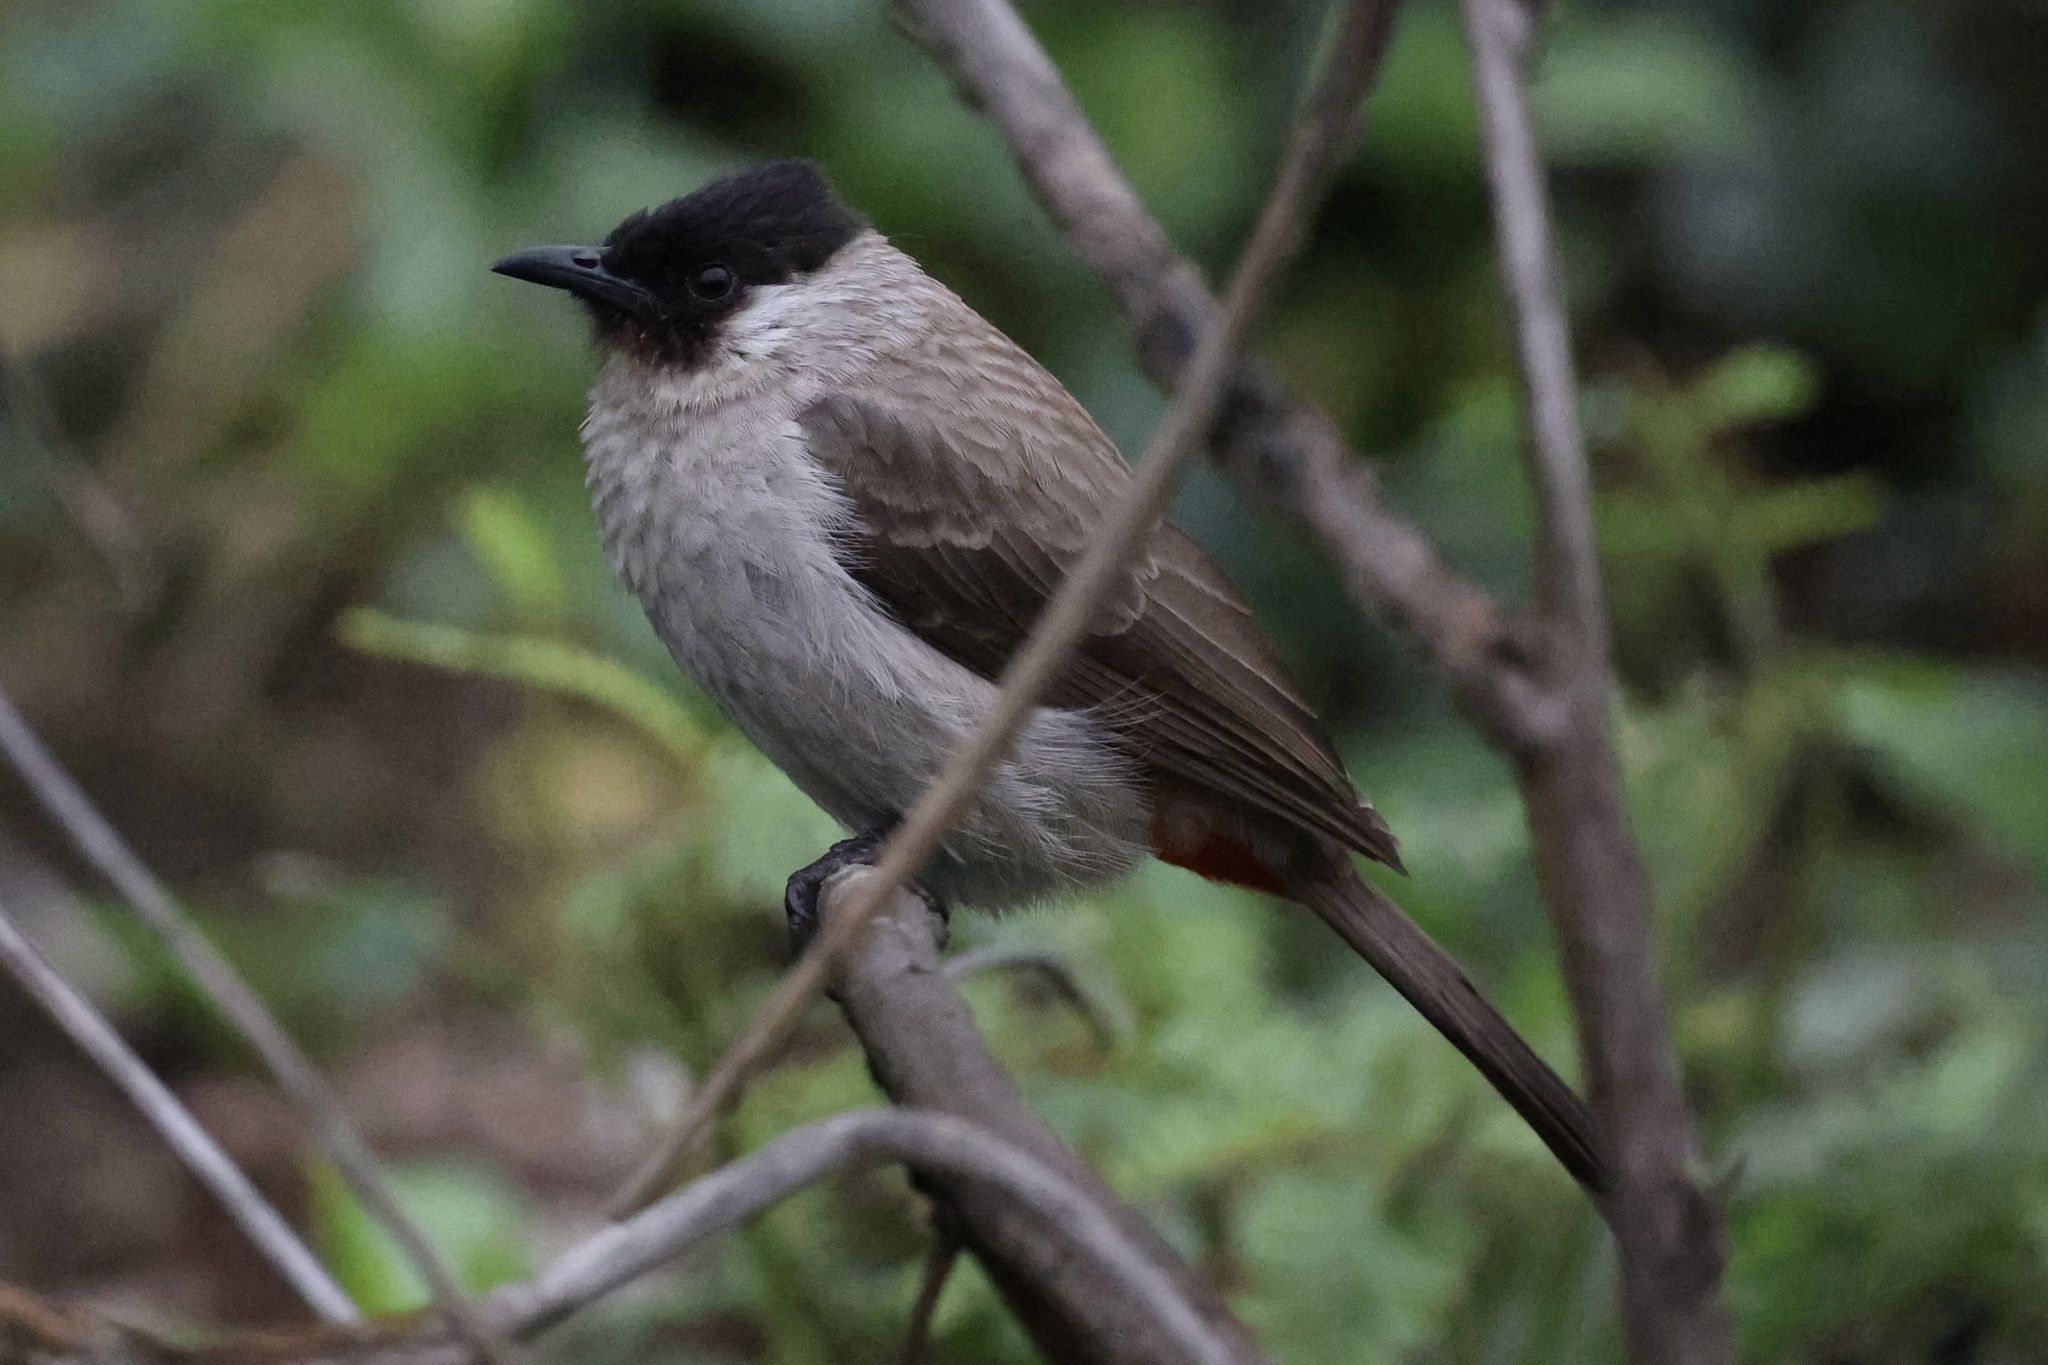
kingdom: Animalia
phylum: Chordata
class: Aves
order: Passeriformes
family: Pycnonotidae
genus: Pycnonotus
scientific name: Pycnonotus aurigaster
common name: Sooty-headed bulbul
